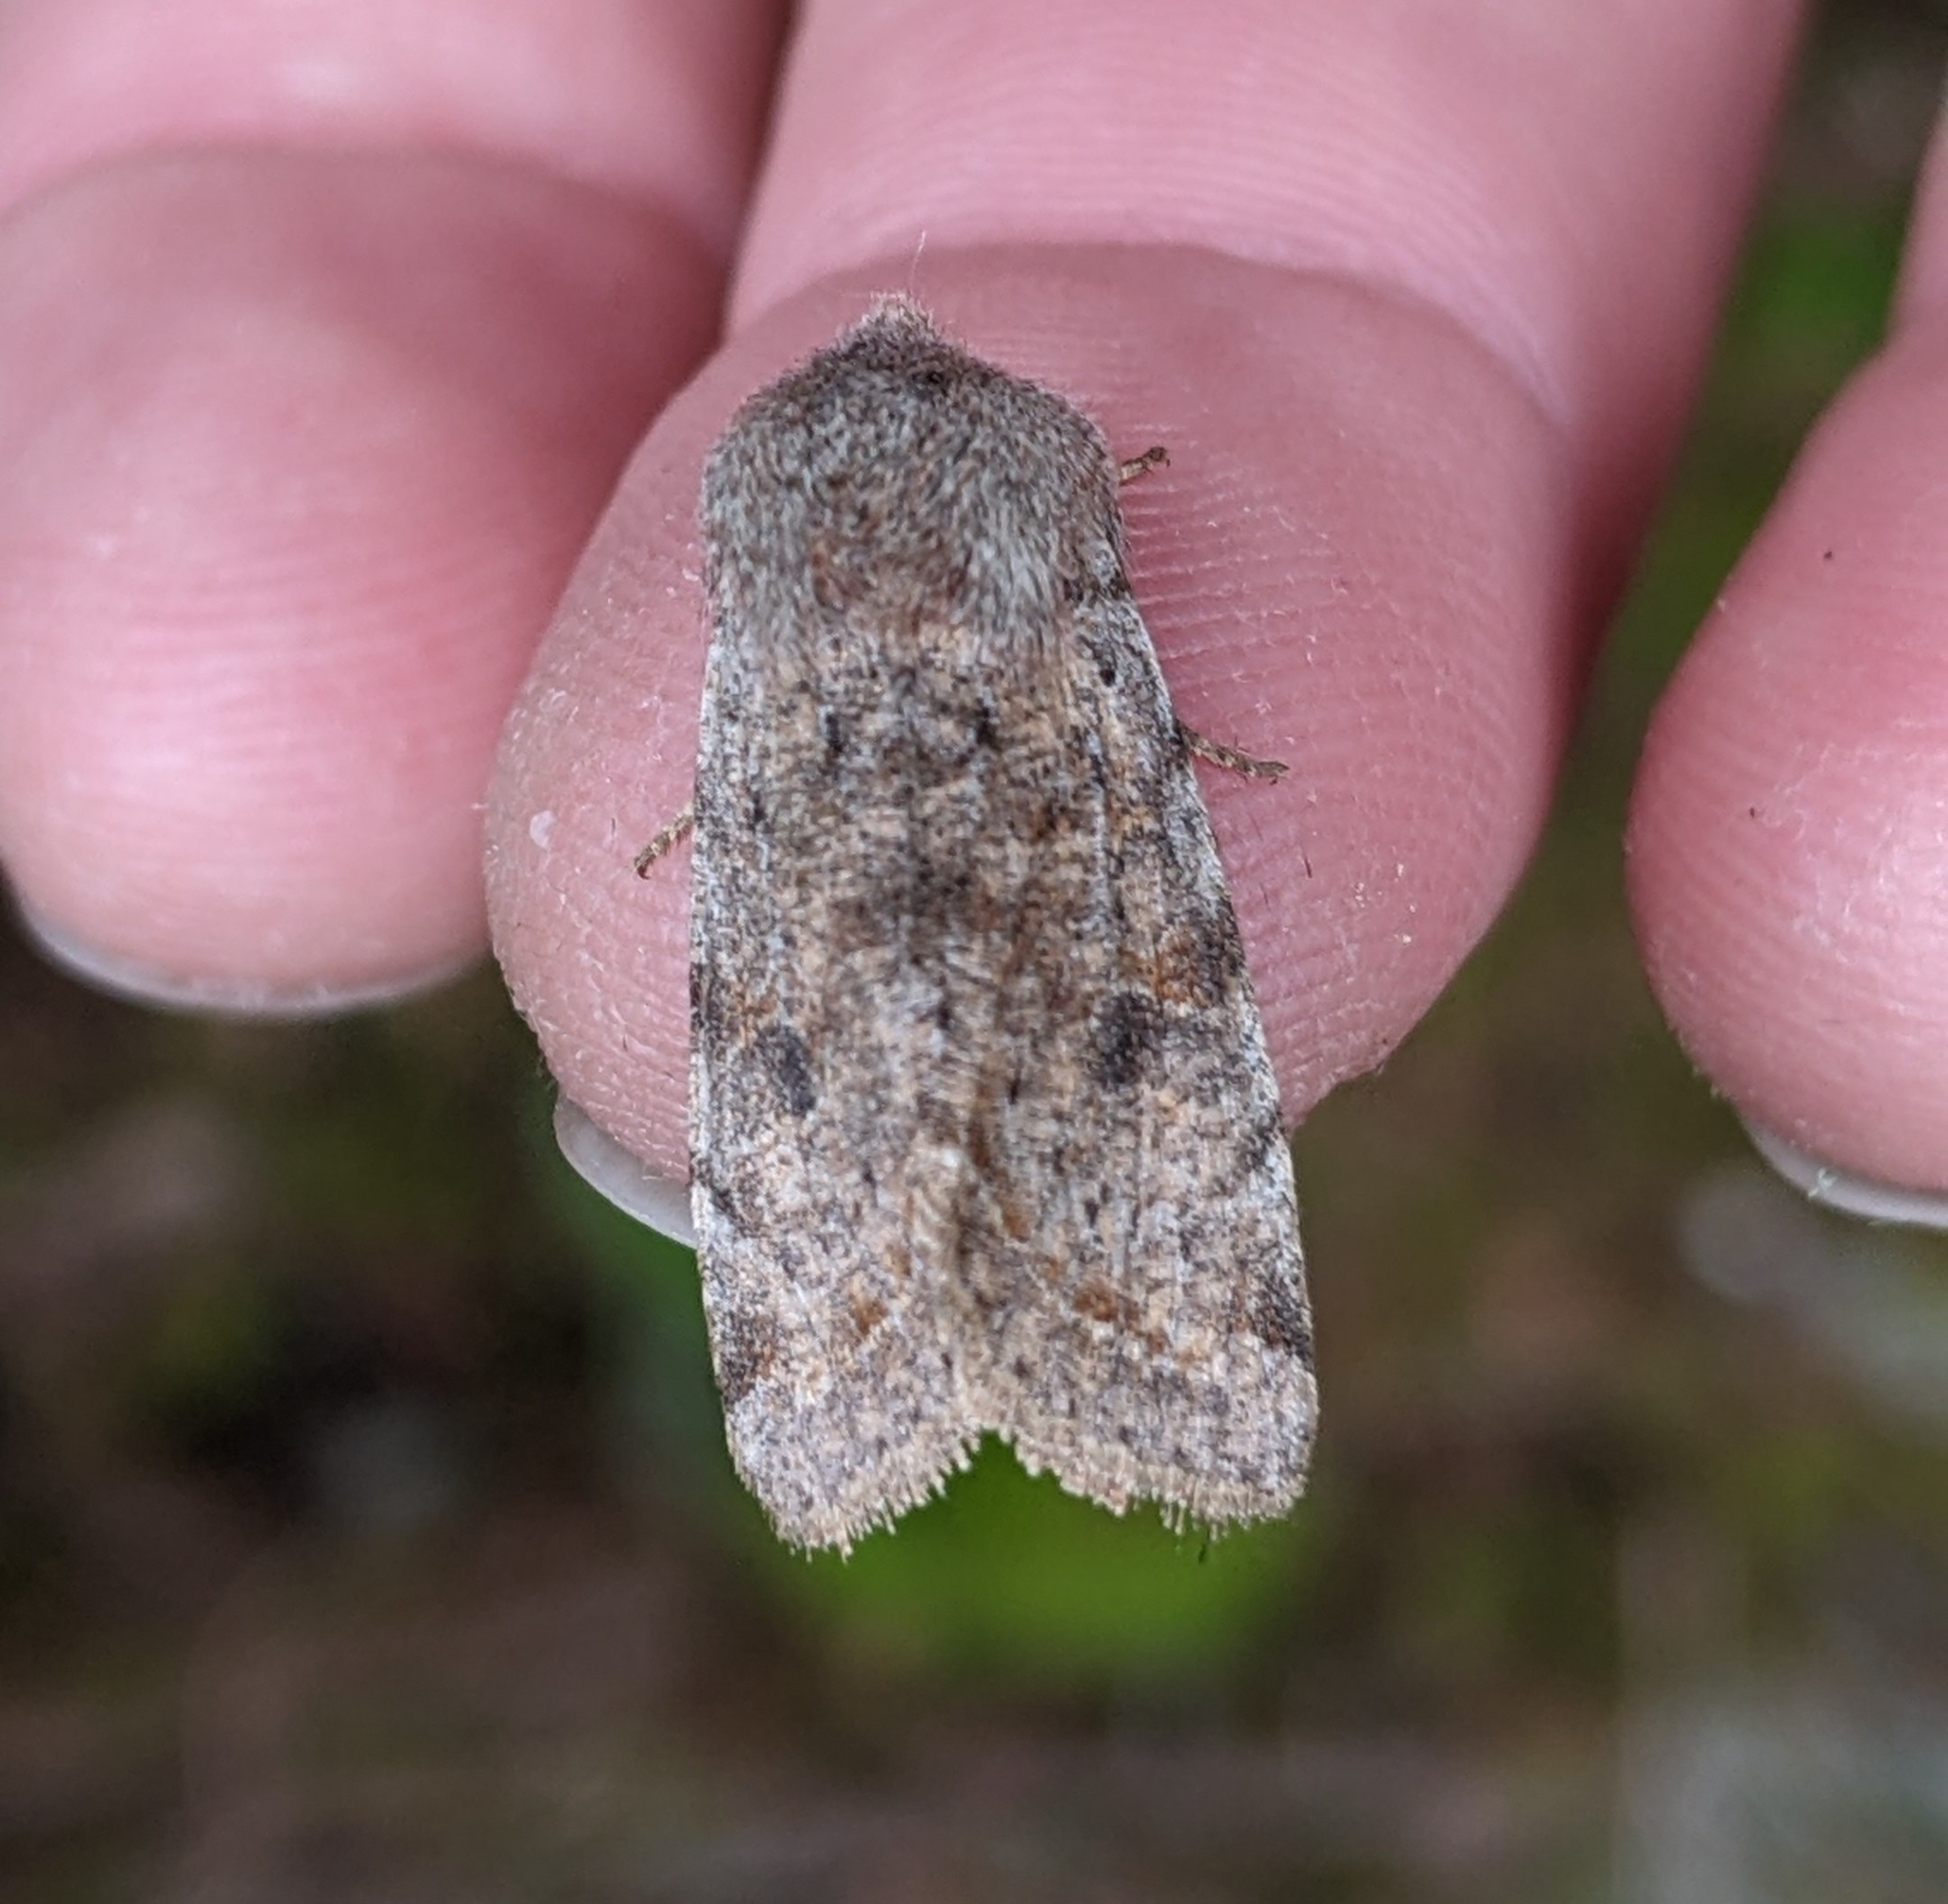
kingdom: Animalia
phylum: Arthropoda
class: Insecta
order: Lepidoptera
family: Noctuidae
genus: Orthosia
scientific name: Orthosia hibisci
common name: Green fruitworm
